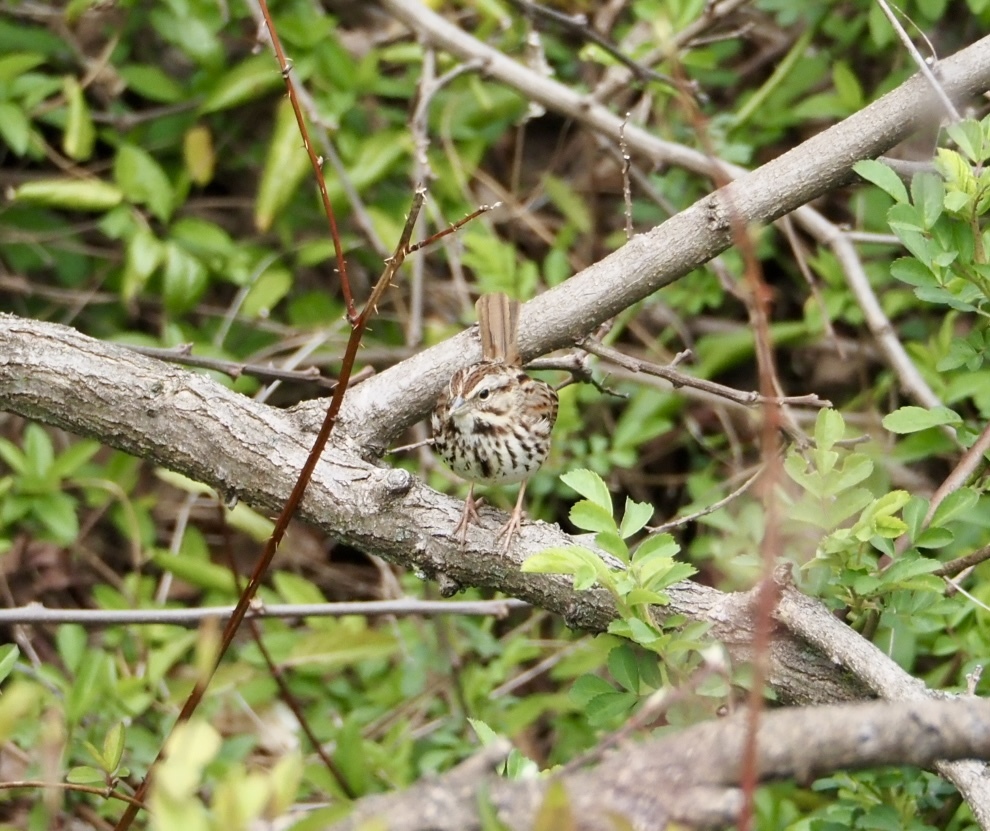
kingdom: Animalia
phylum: Chordata
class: Aves
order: Passeriformes
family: Passerellidae
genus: Melospiza
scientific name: Melospiza melodia
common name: Song sparrow
